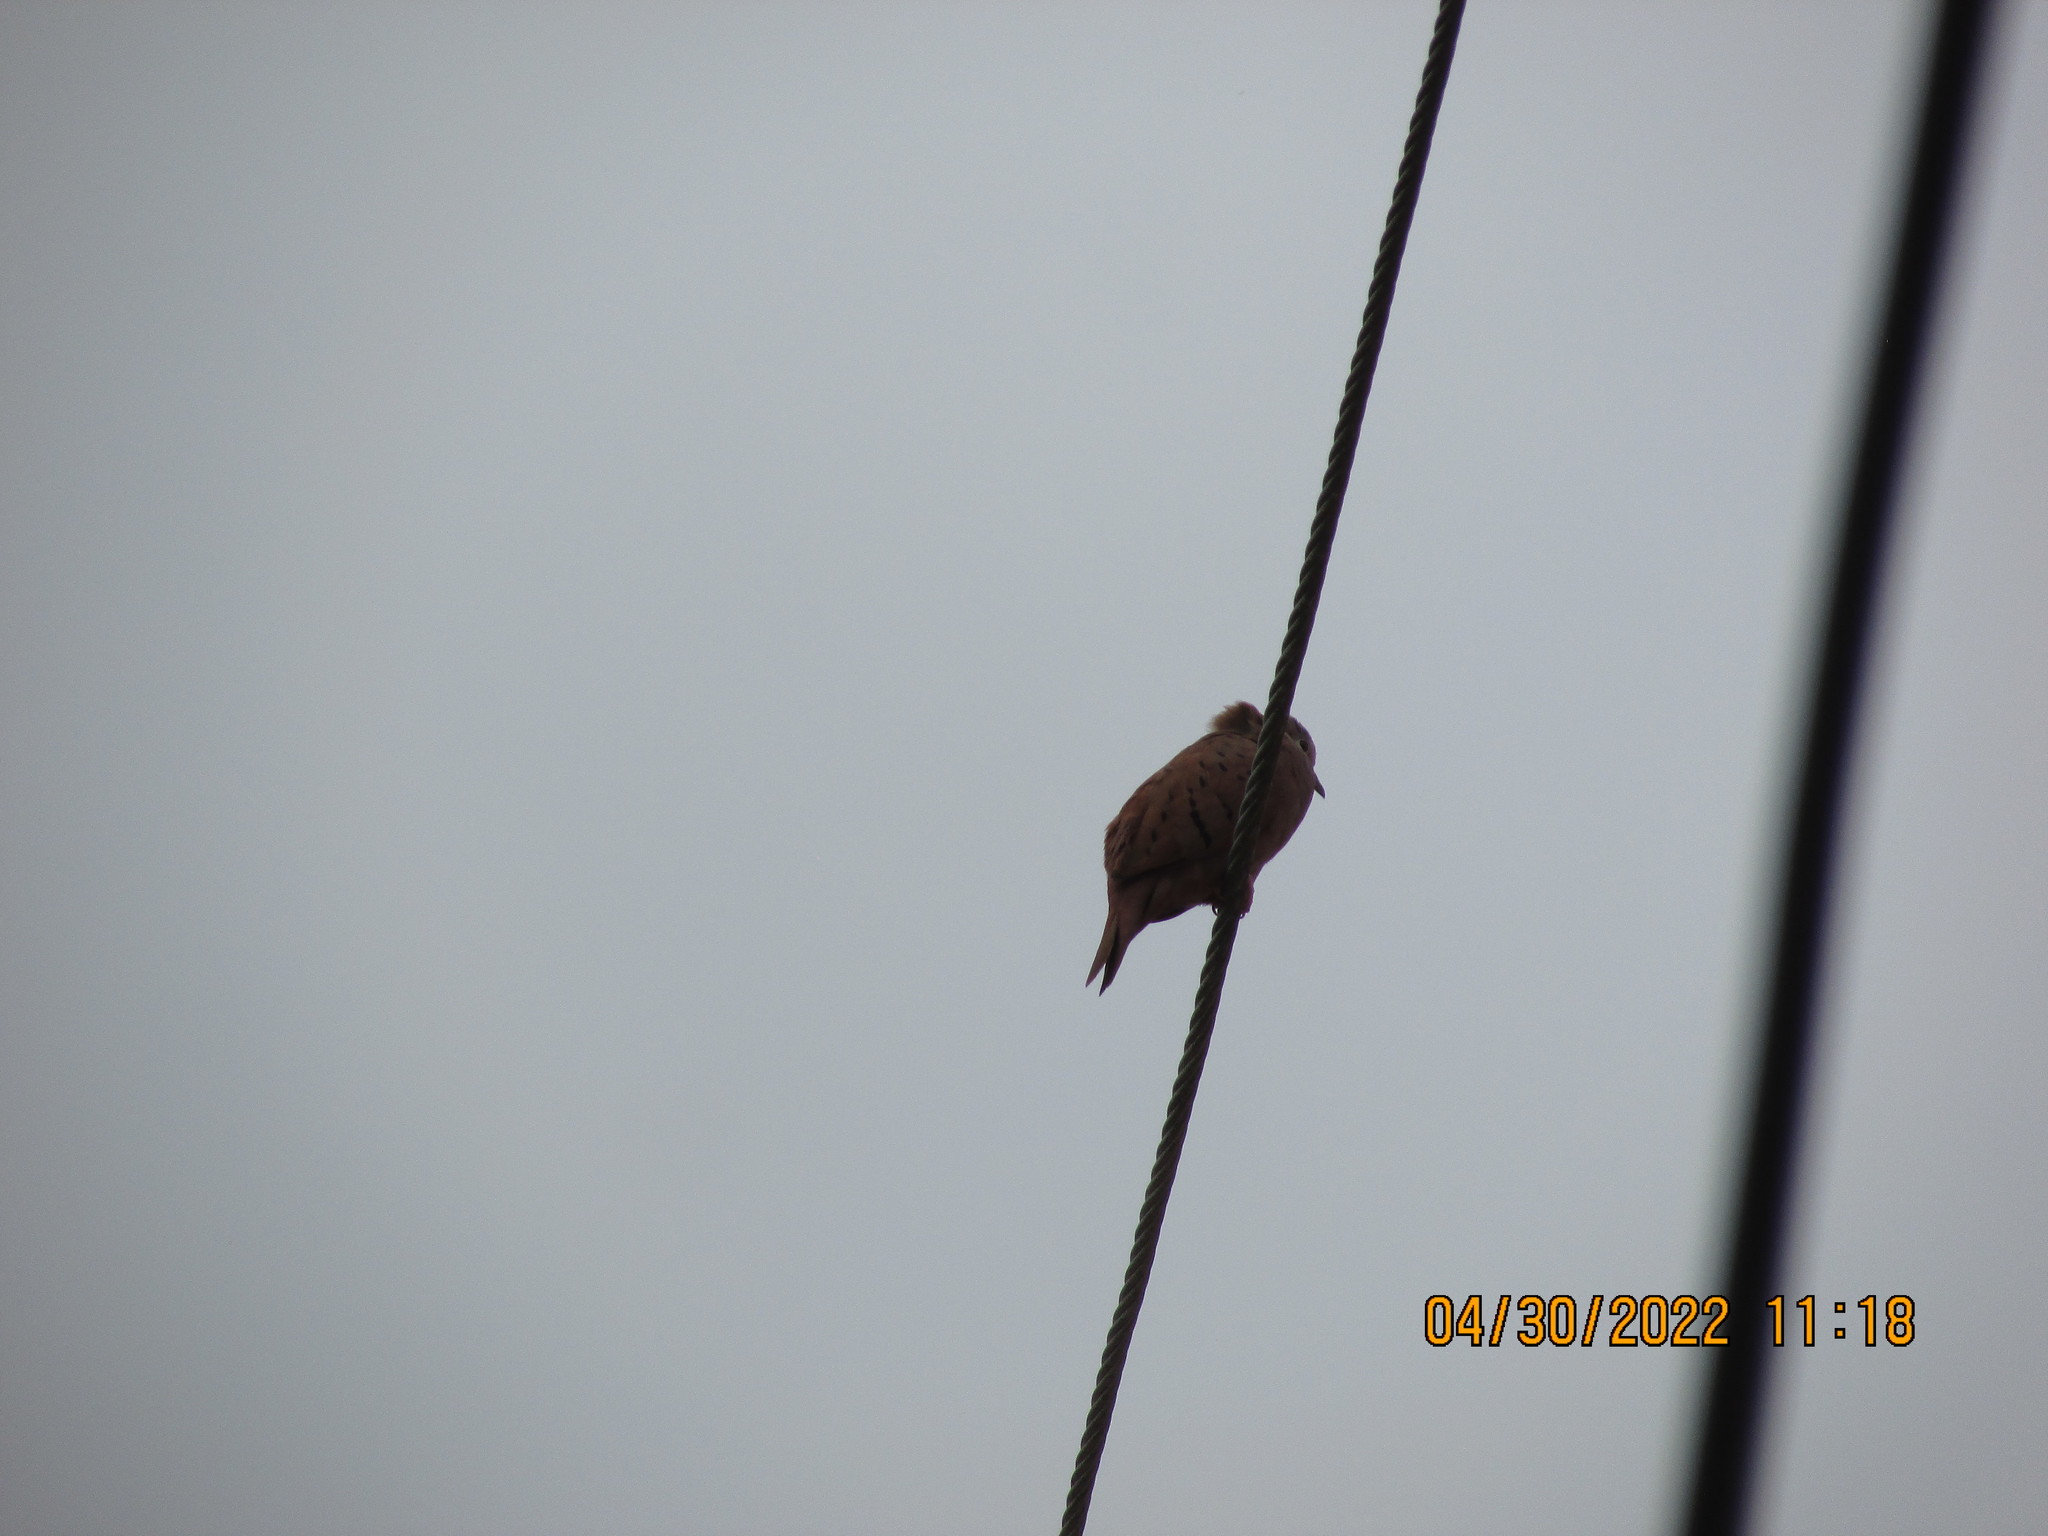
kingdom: Animalia
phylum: Chordata
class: Aves
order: Columbiformes
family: Columbidae
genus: Columbina
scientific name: Columbina talpacoti
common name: Ruddy ground dove
